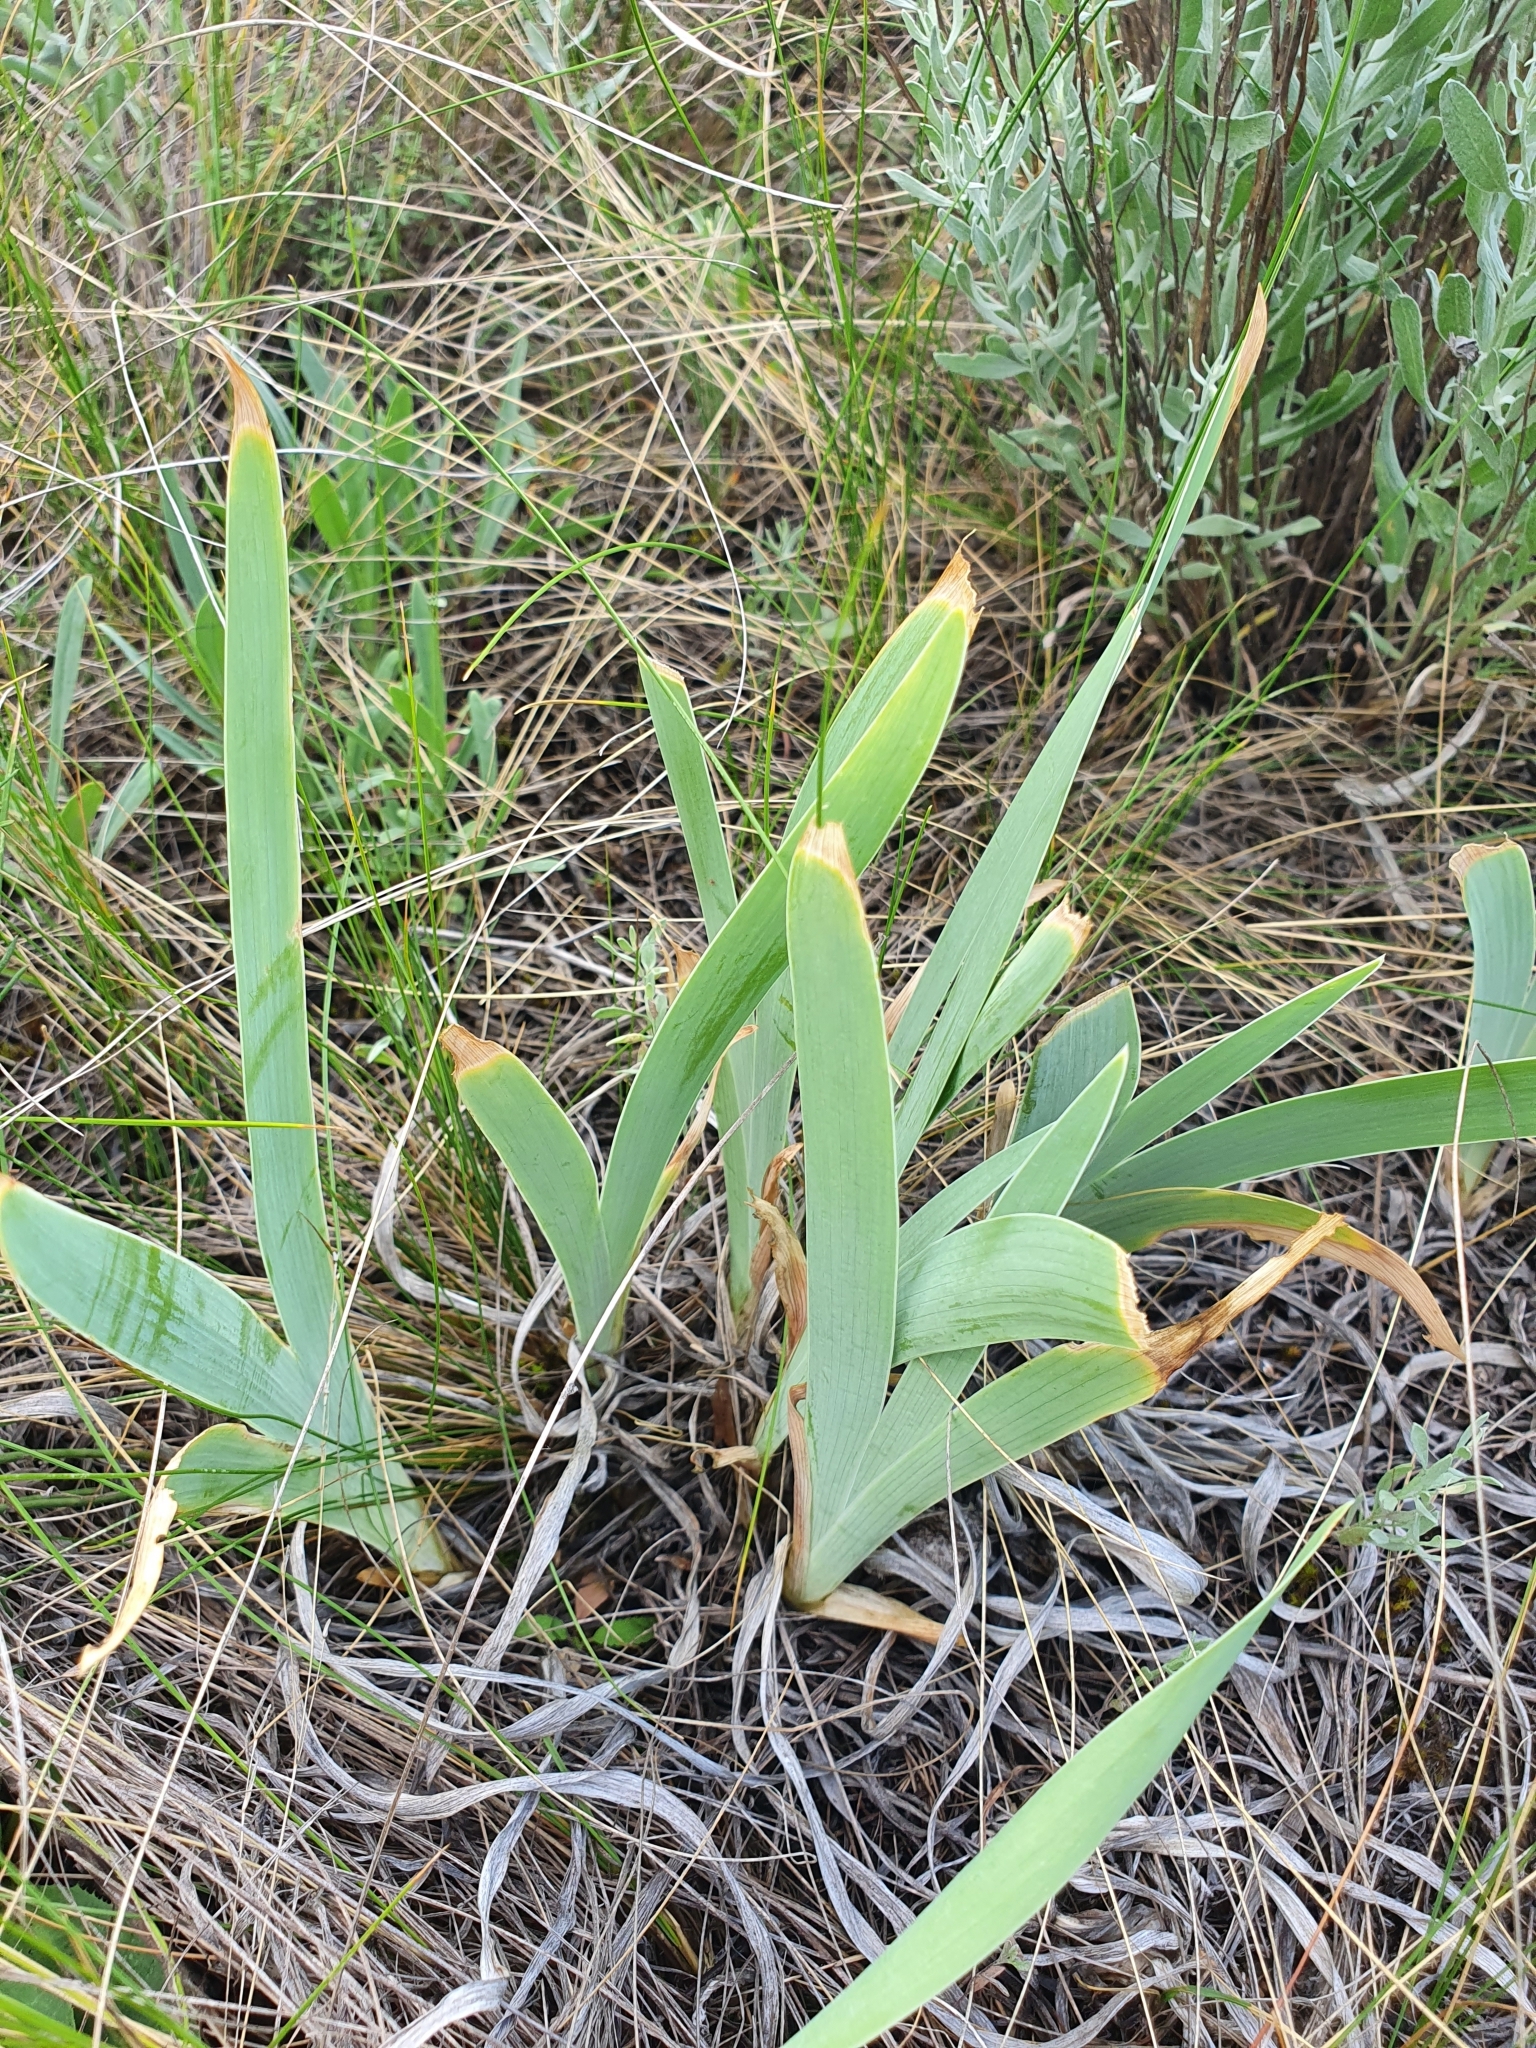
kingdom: Plantae
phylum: Tracheophyta
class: Liliopsida
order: Asparagales
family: Iridaceae
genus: Iris
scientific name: Iris pumila
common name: Dwarf iris
